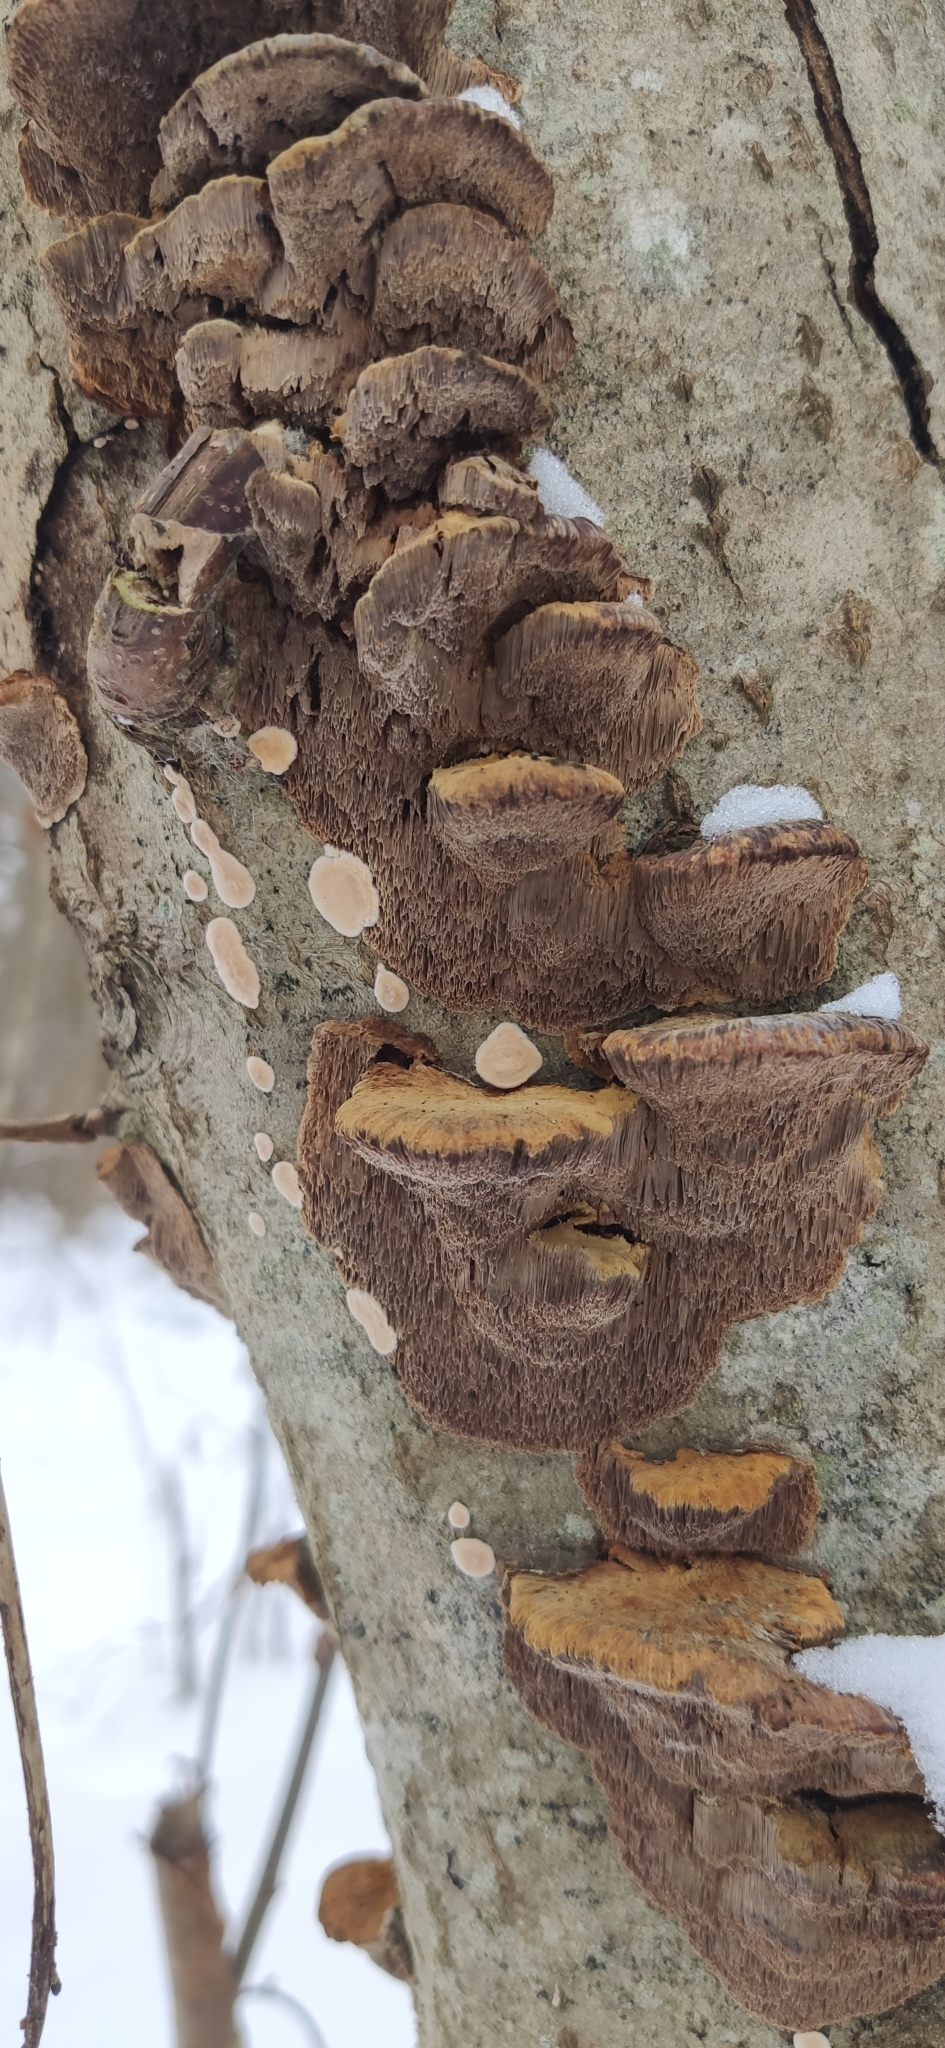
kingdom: Fungi
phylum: Basidiomycota
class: Agaricomycetes
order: Hymenochaetales
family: Hymenochaetaceae
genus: Xanthoporia
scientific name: Xanthoporia radiata
